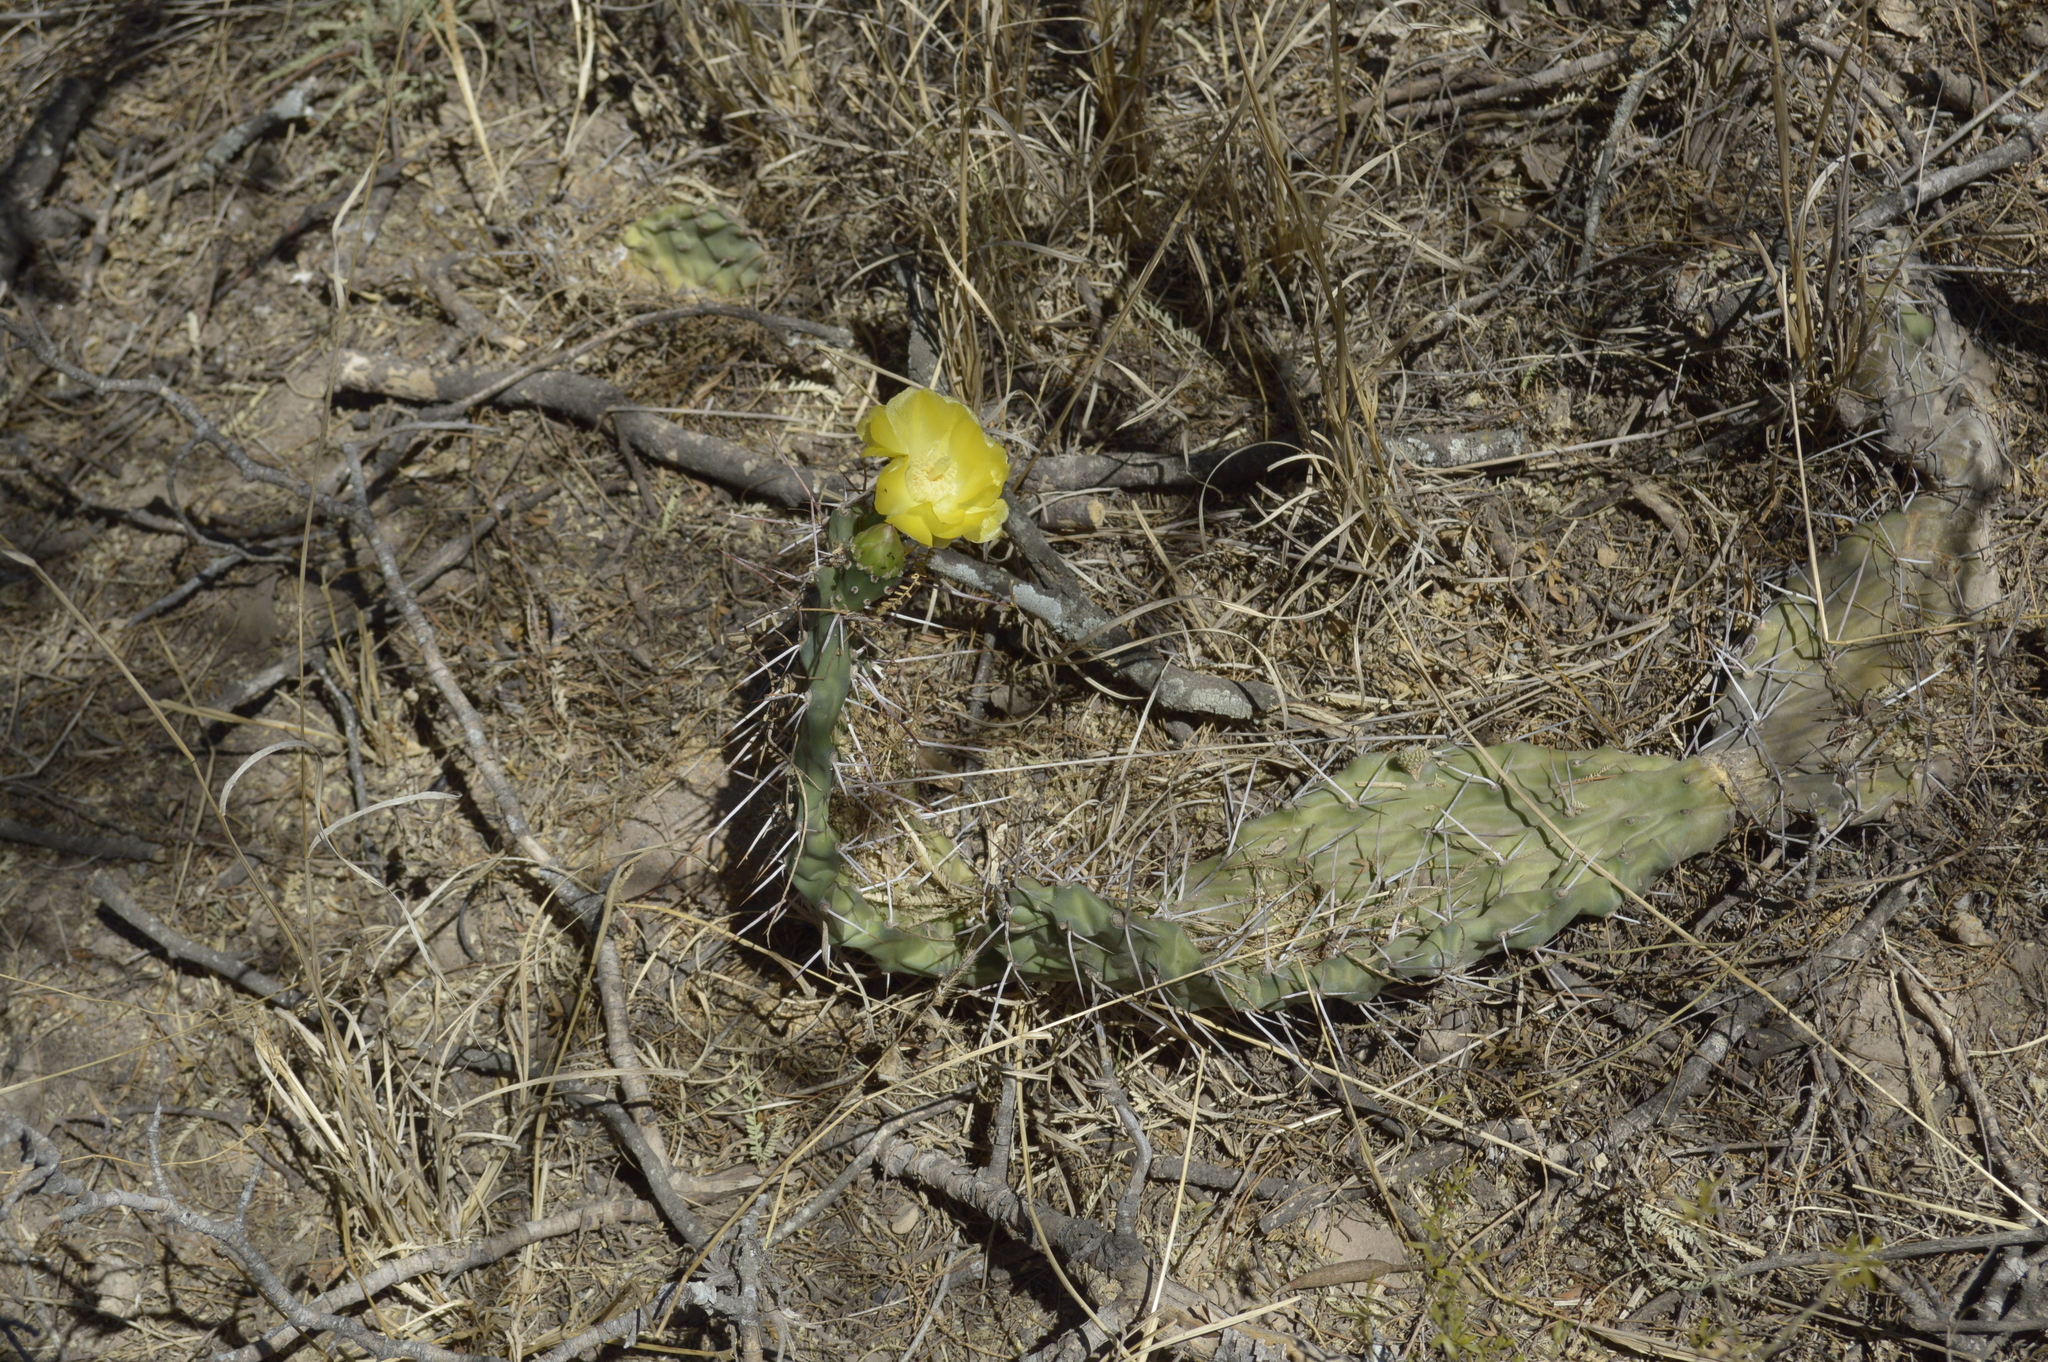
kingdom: Plantae
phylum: Tracheophyta
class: Magnoliopsida
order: Caryophyllales
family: Cactaceae
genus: Opuntia
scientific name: Opuntia sulphurea
